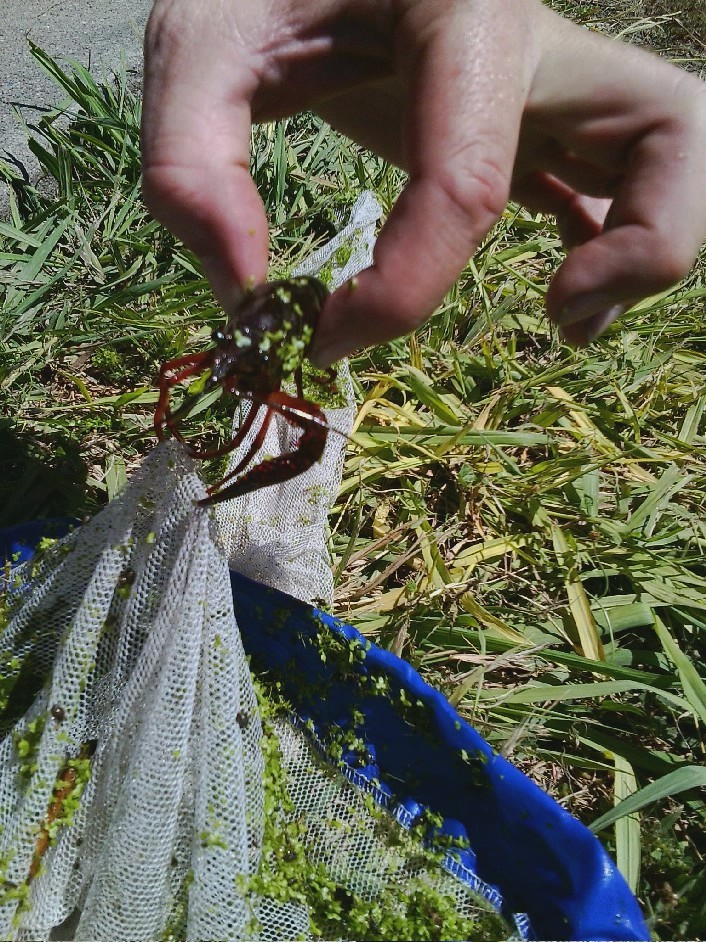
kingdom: Animalia
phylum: Arthropoda
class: Malacostraca
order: Decapoda
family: Cambaridae
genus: Procambarus
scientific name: Procambarus clarkii
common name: Red swamp crayfish
